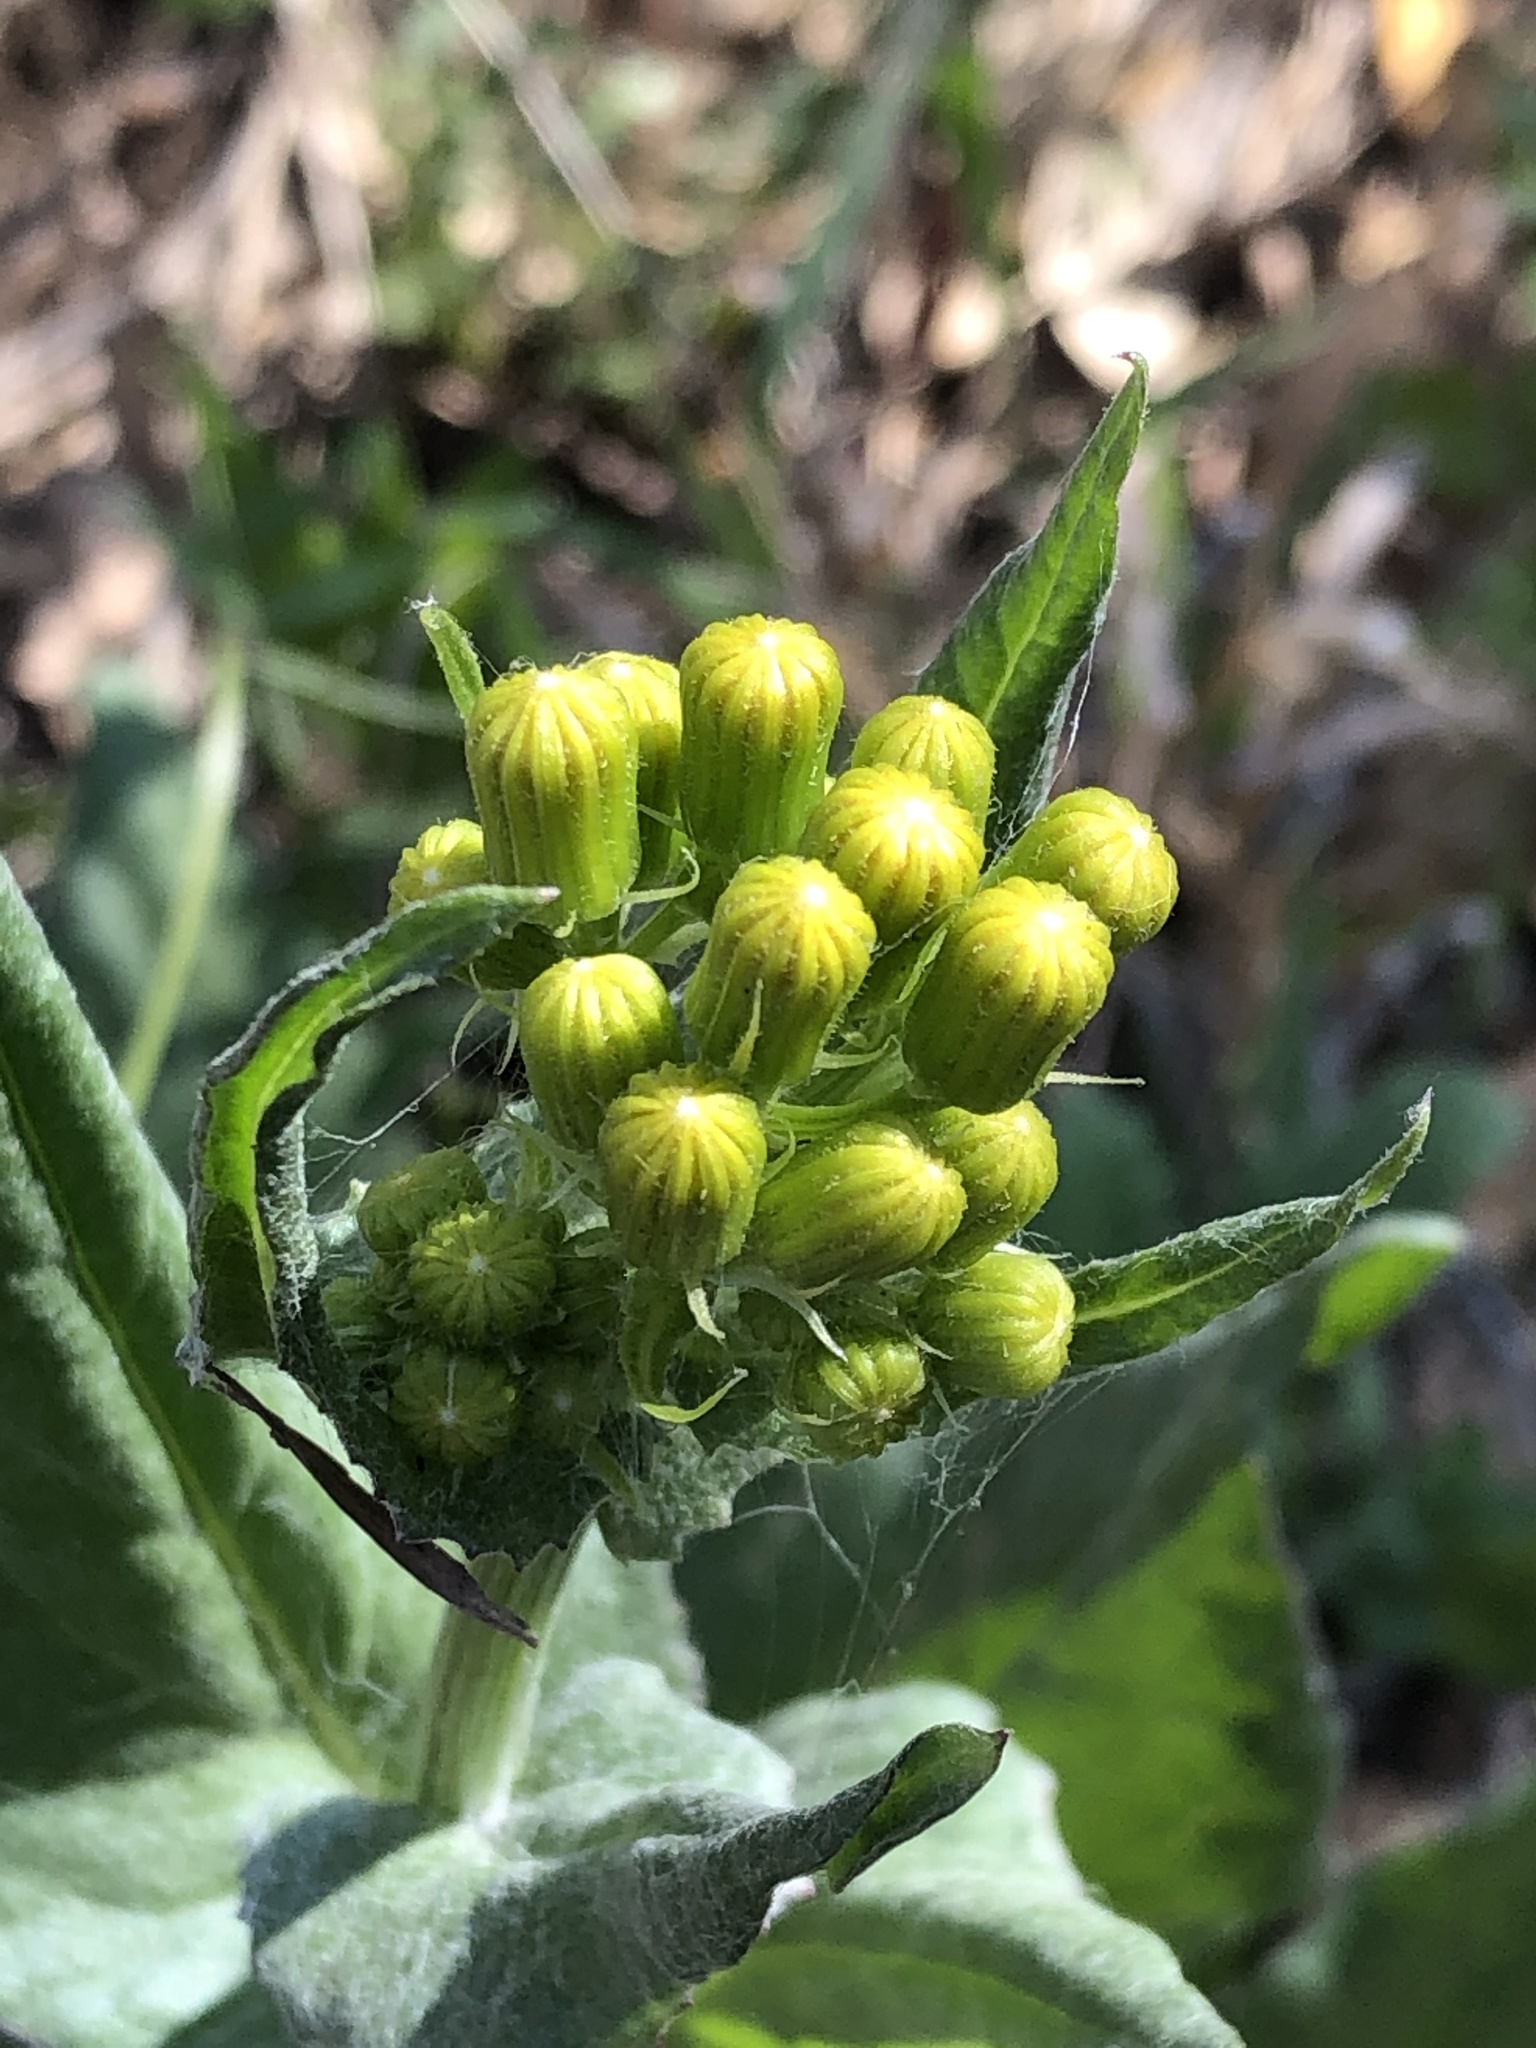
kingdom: Plantae
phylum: Tracheophyta
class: Magnoliopsida
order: Asterales
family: Asteraceae
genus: Senecio
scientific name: Senecio ampullaceus
